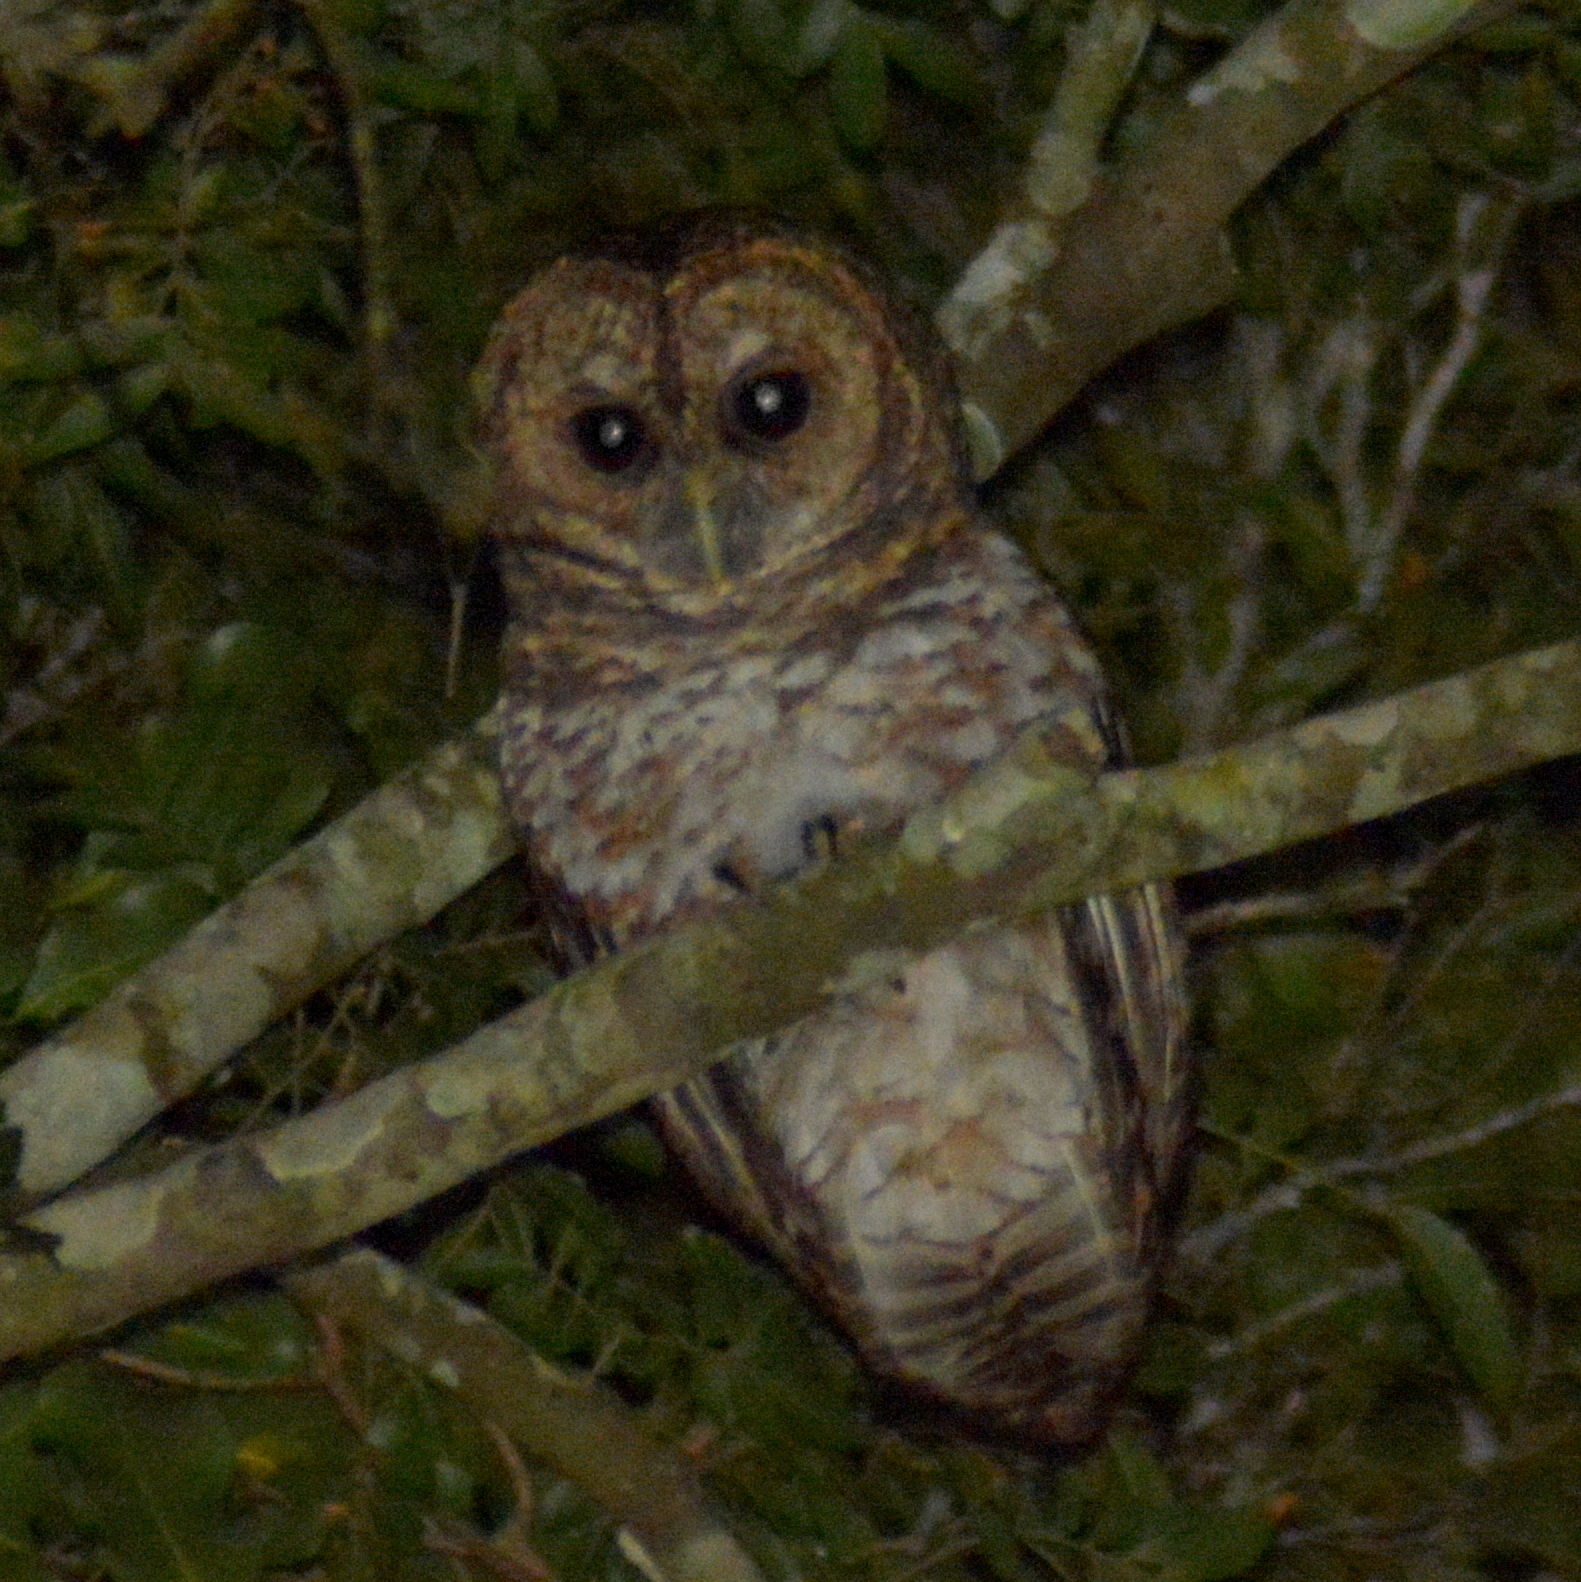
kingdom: Animalia
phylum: Chordata
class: Aves
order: Strigiformes
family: Strigidae
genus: Strix
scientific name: Strix hylophila
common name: Rusty-barred owl
